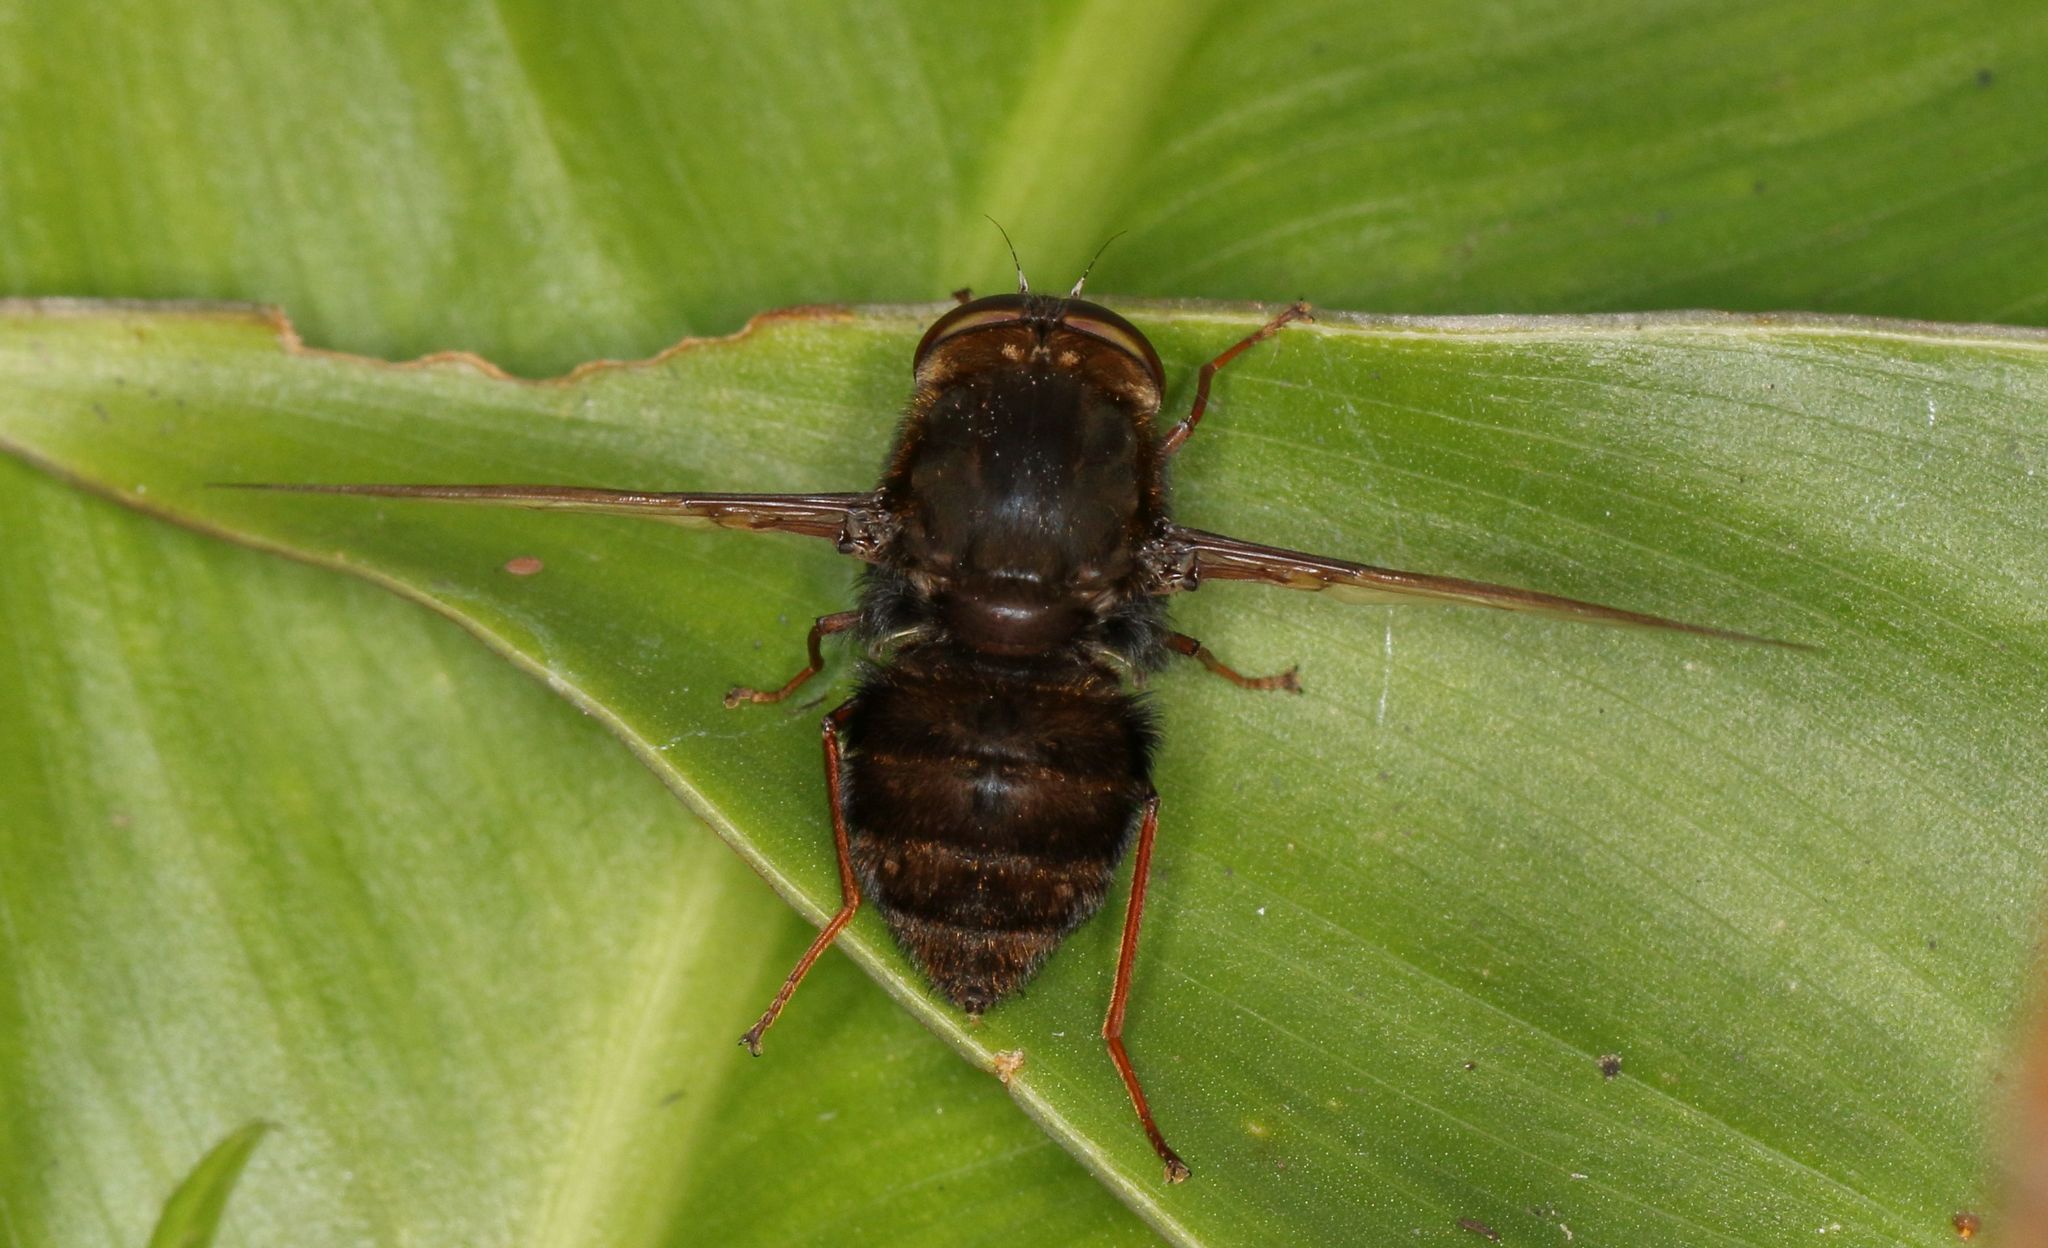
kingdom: Animalia
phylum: Arthropoda
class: Insecta
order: Diptera
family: Nemestrinidae
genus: Prosoeca
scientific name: Prosoeca atra
